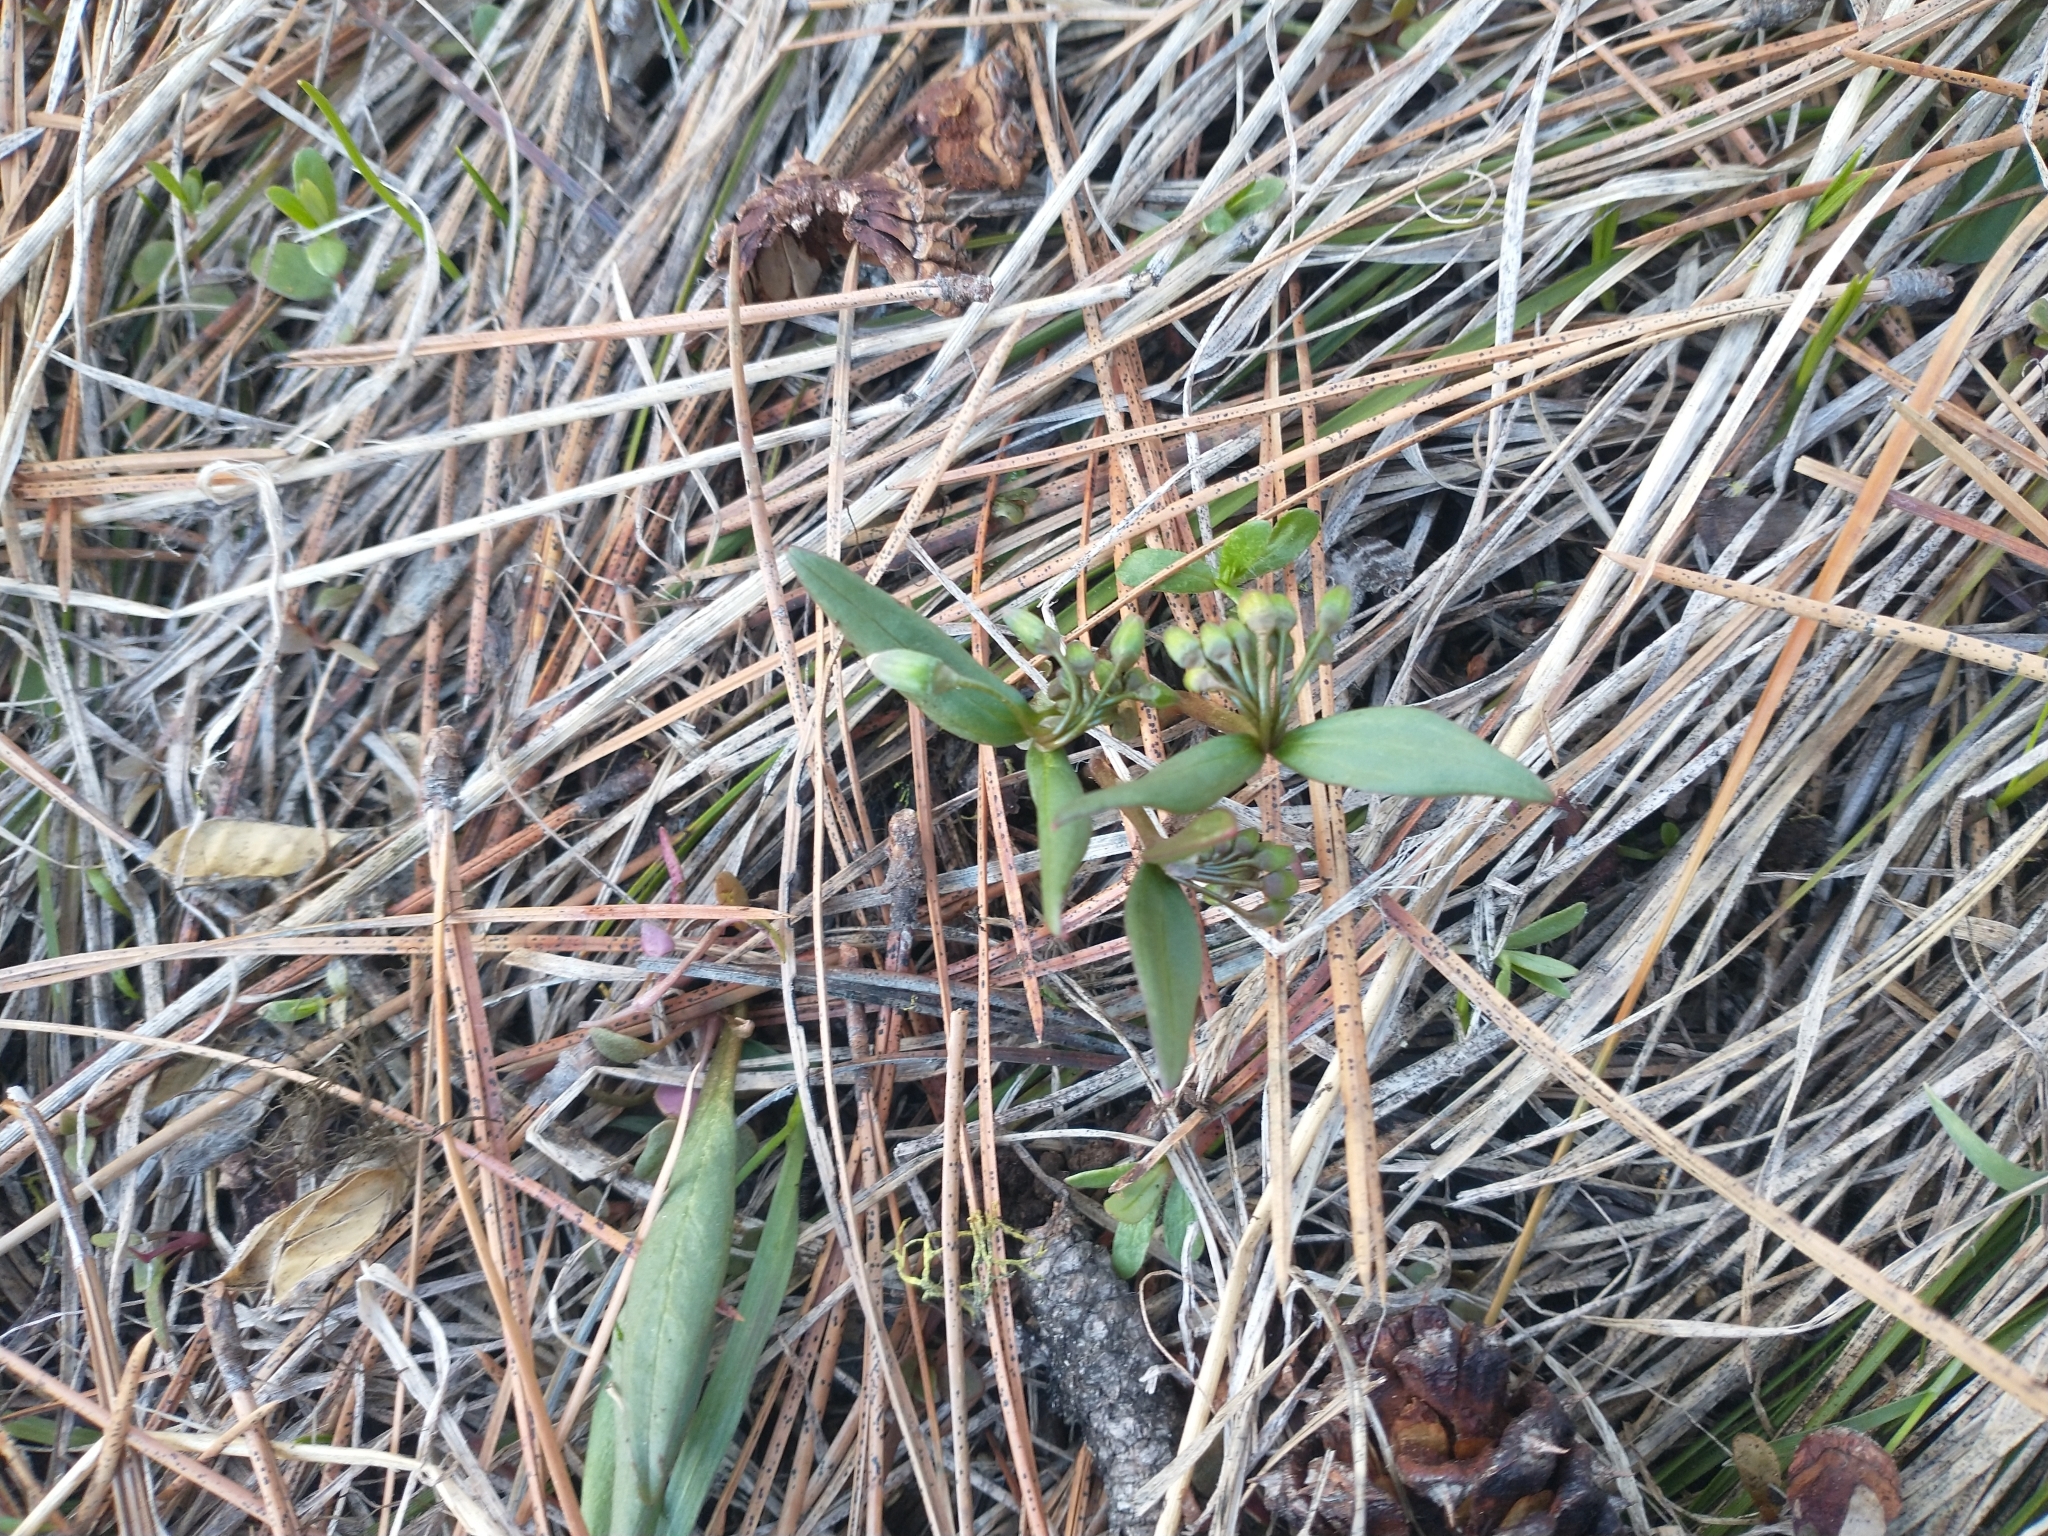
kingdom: Plantae
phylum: Tracheophyta
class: Magnoliopsida
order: Caryophyllales
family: Montiaceae
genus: Claytonia
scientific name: Claytonia lanceolata
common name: Western spring-beauty
